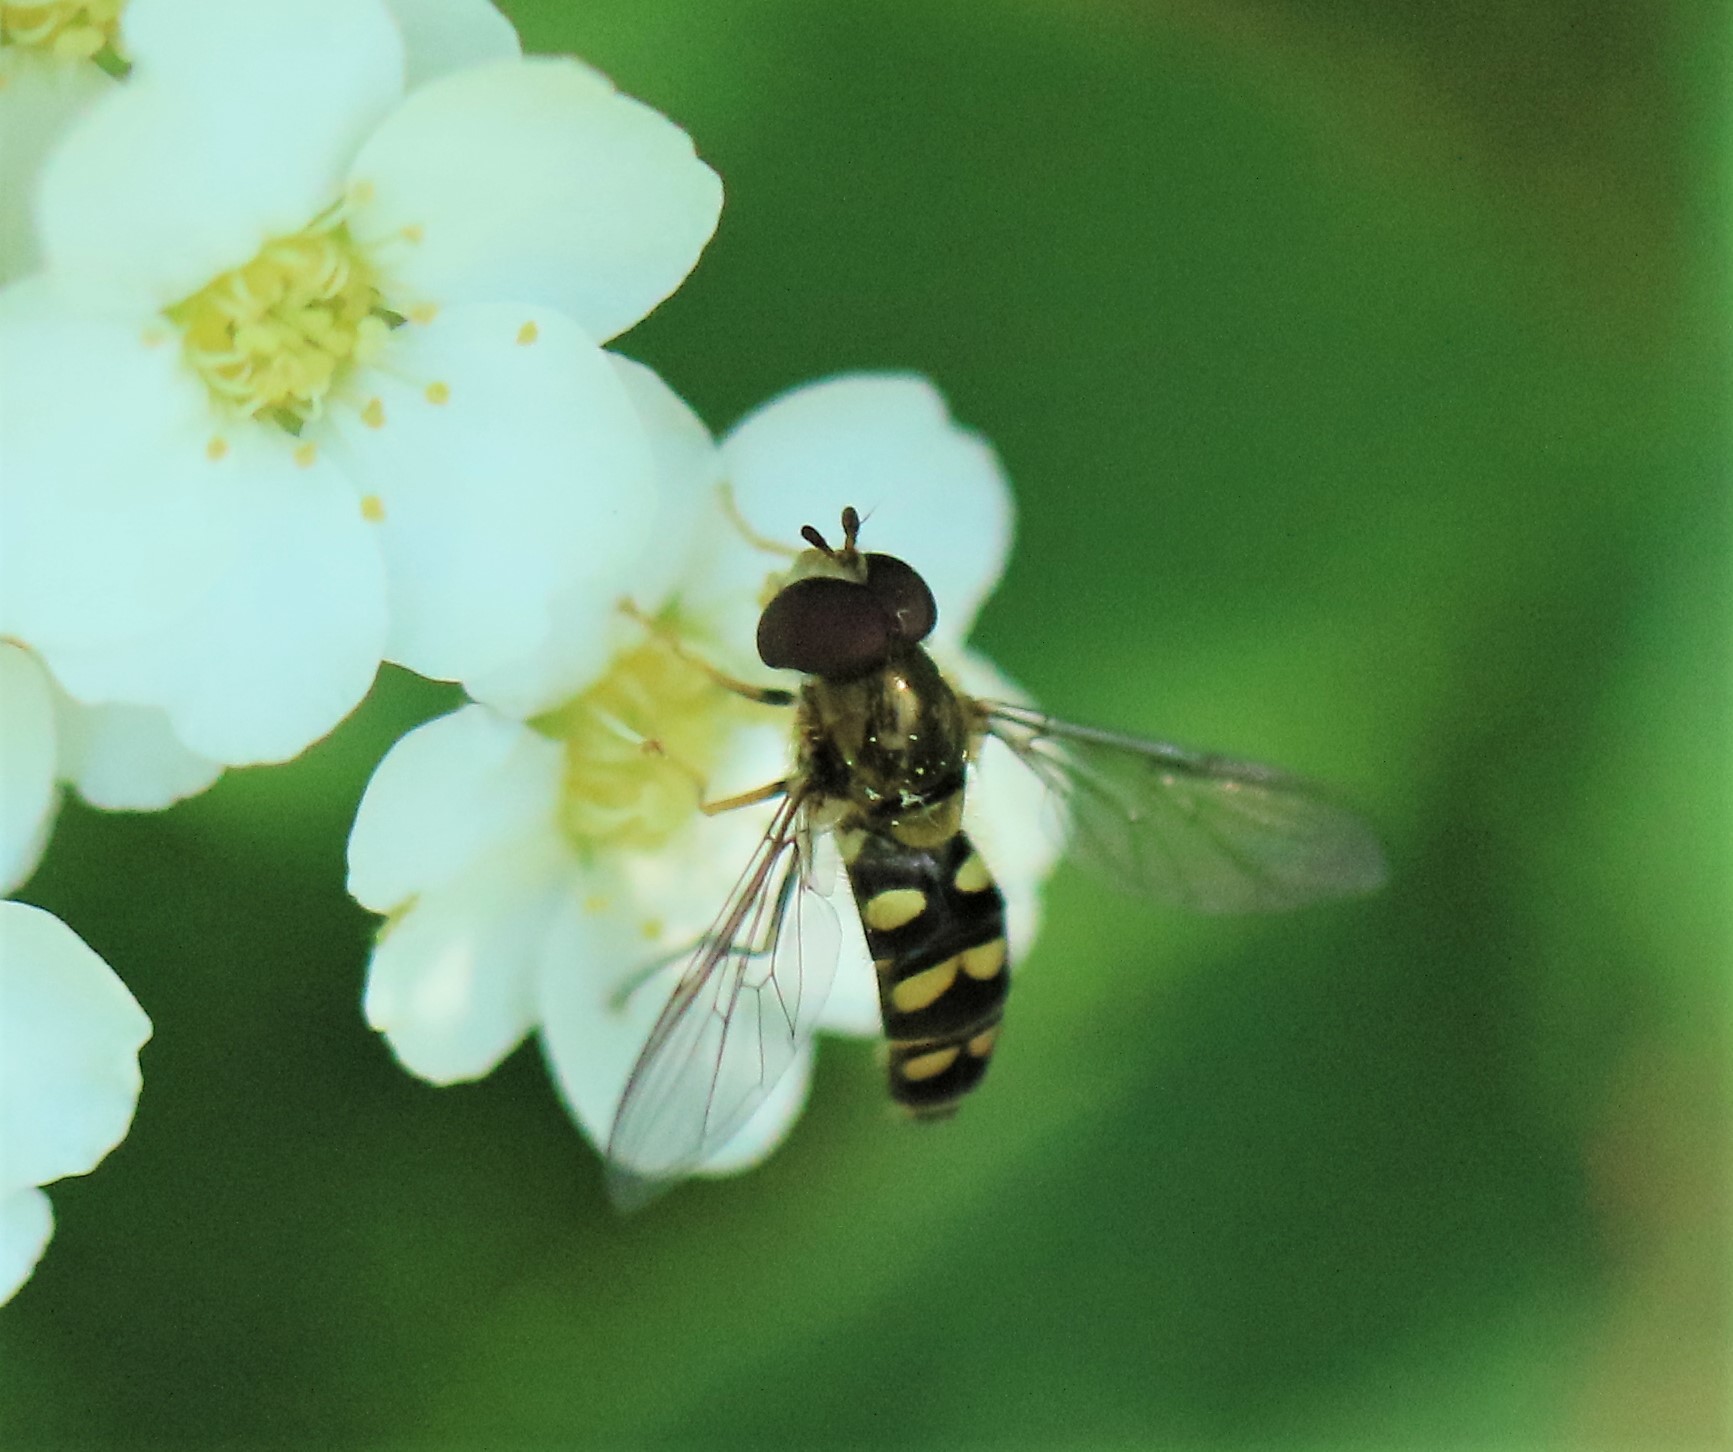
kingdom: Animalia
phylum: Arthropoda
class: Insecta
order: Diptera
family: Syrphidae
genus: Epistrophella
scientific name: Epistrophella emarginata
